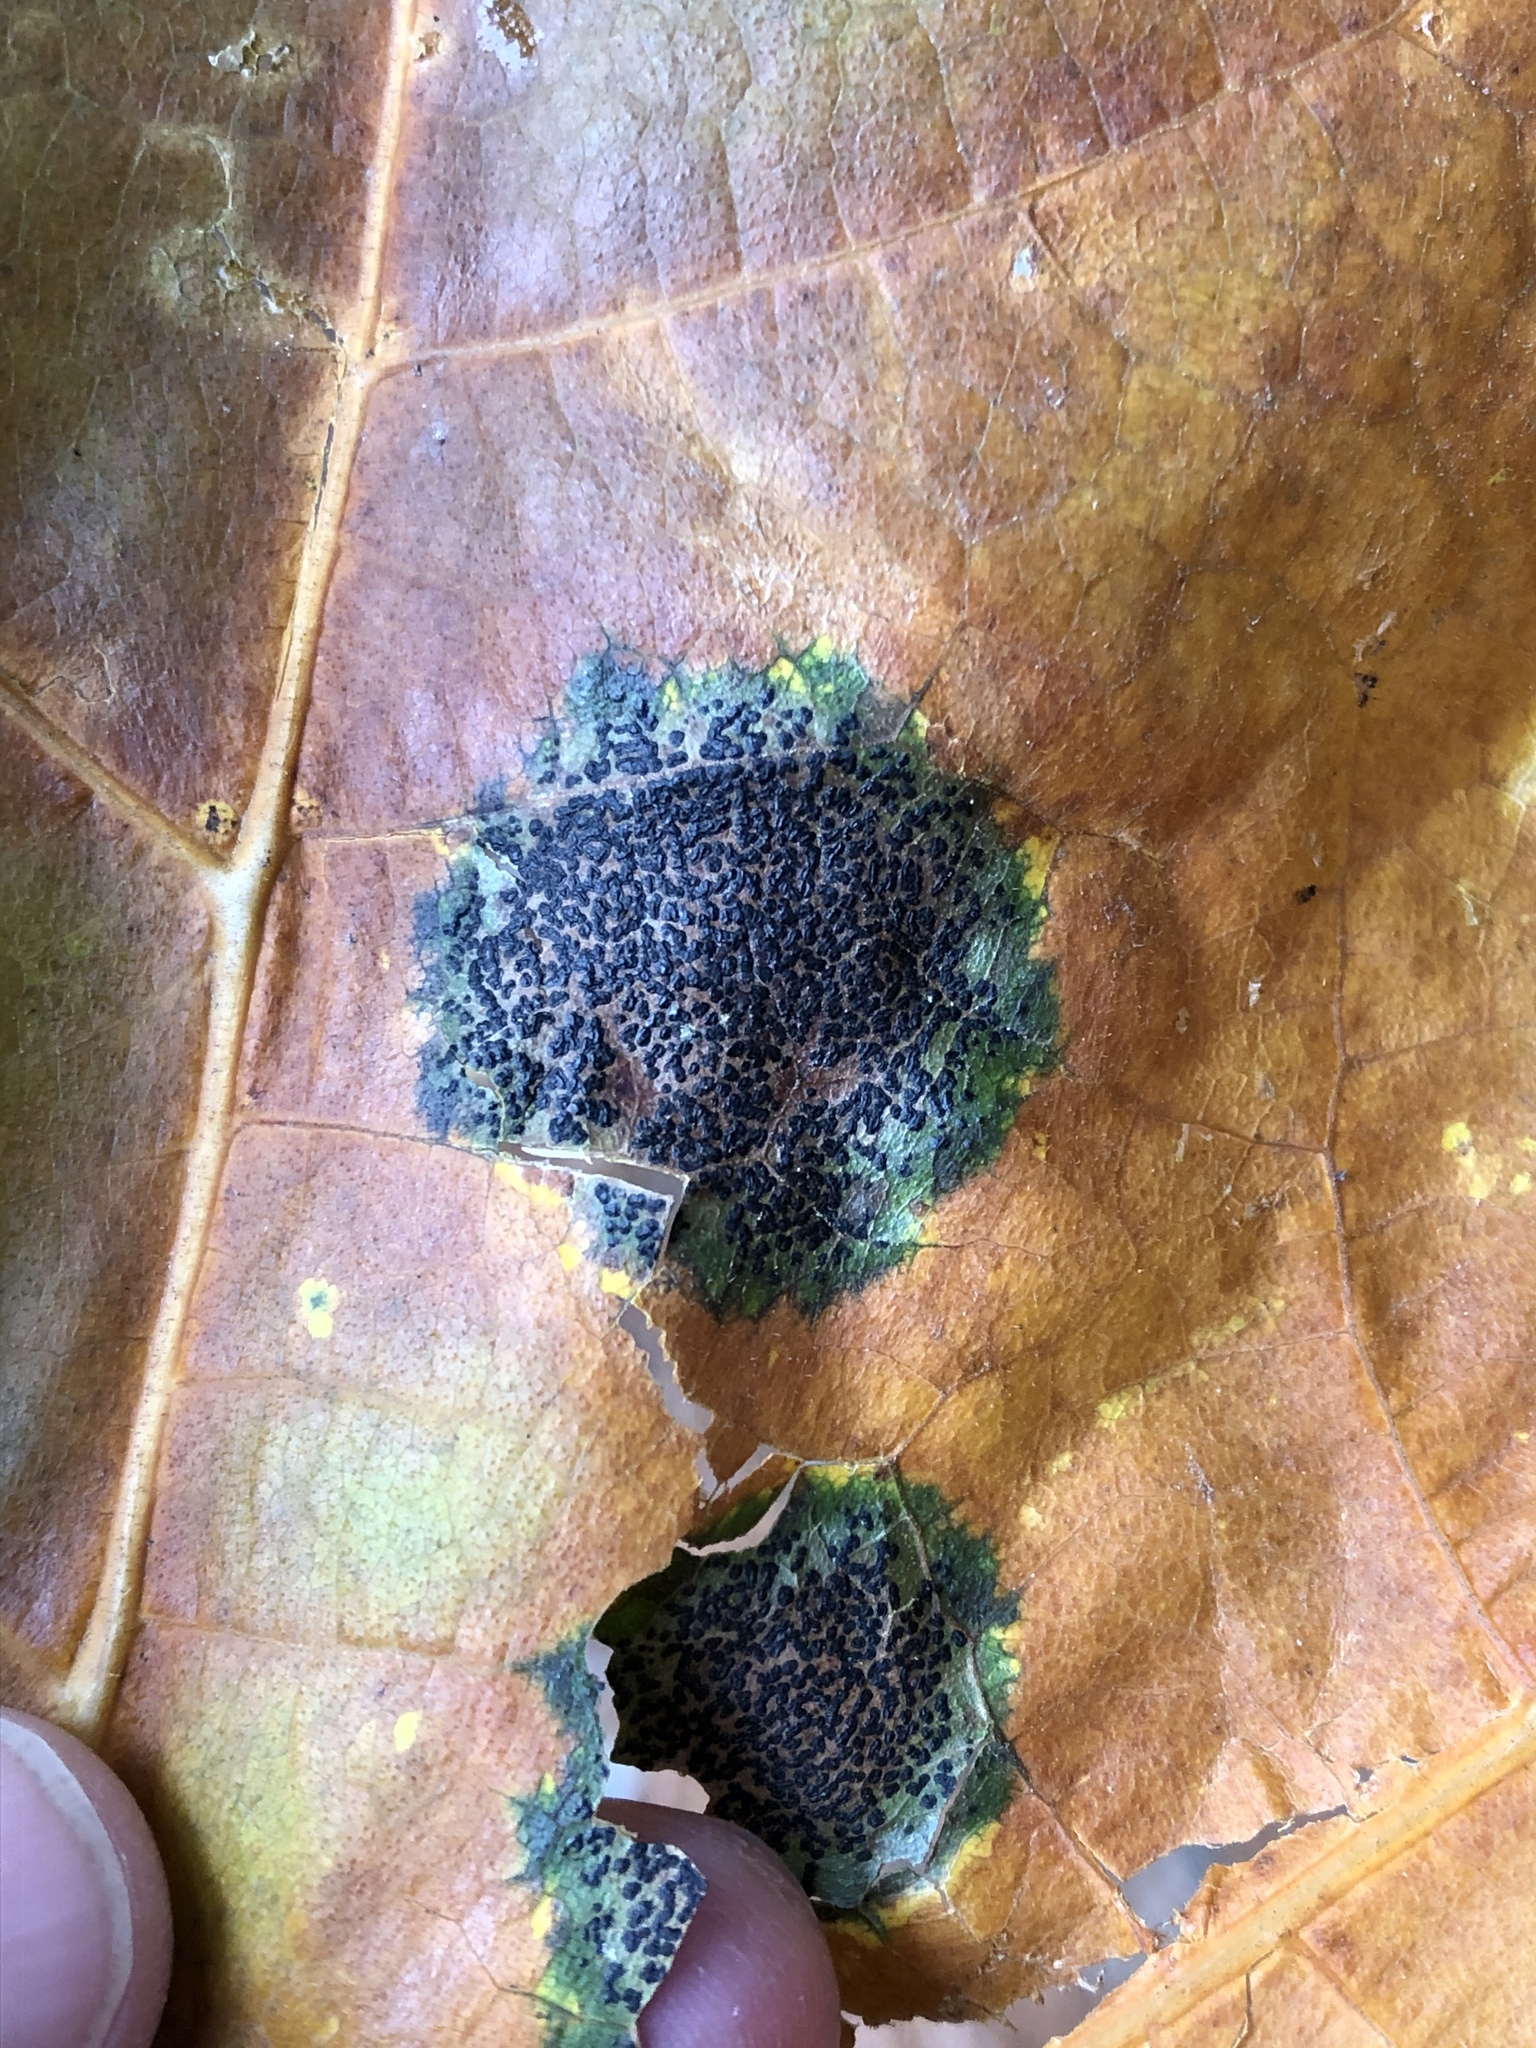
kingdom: Fungi
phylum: Ascomycota
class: Leotiomycetes
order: Rhytismatales
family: Rhytismataceae
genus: Rhytisma
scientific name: Rhytisma punctatum
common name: Speckled tar spot
